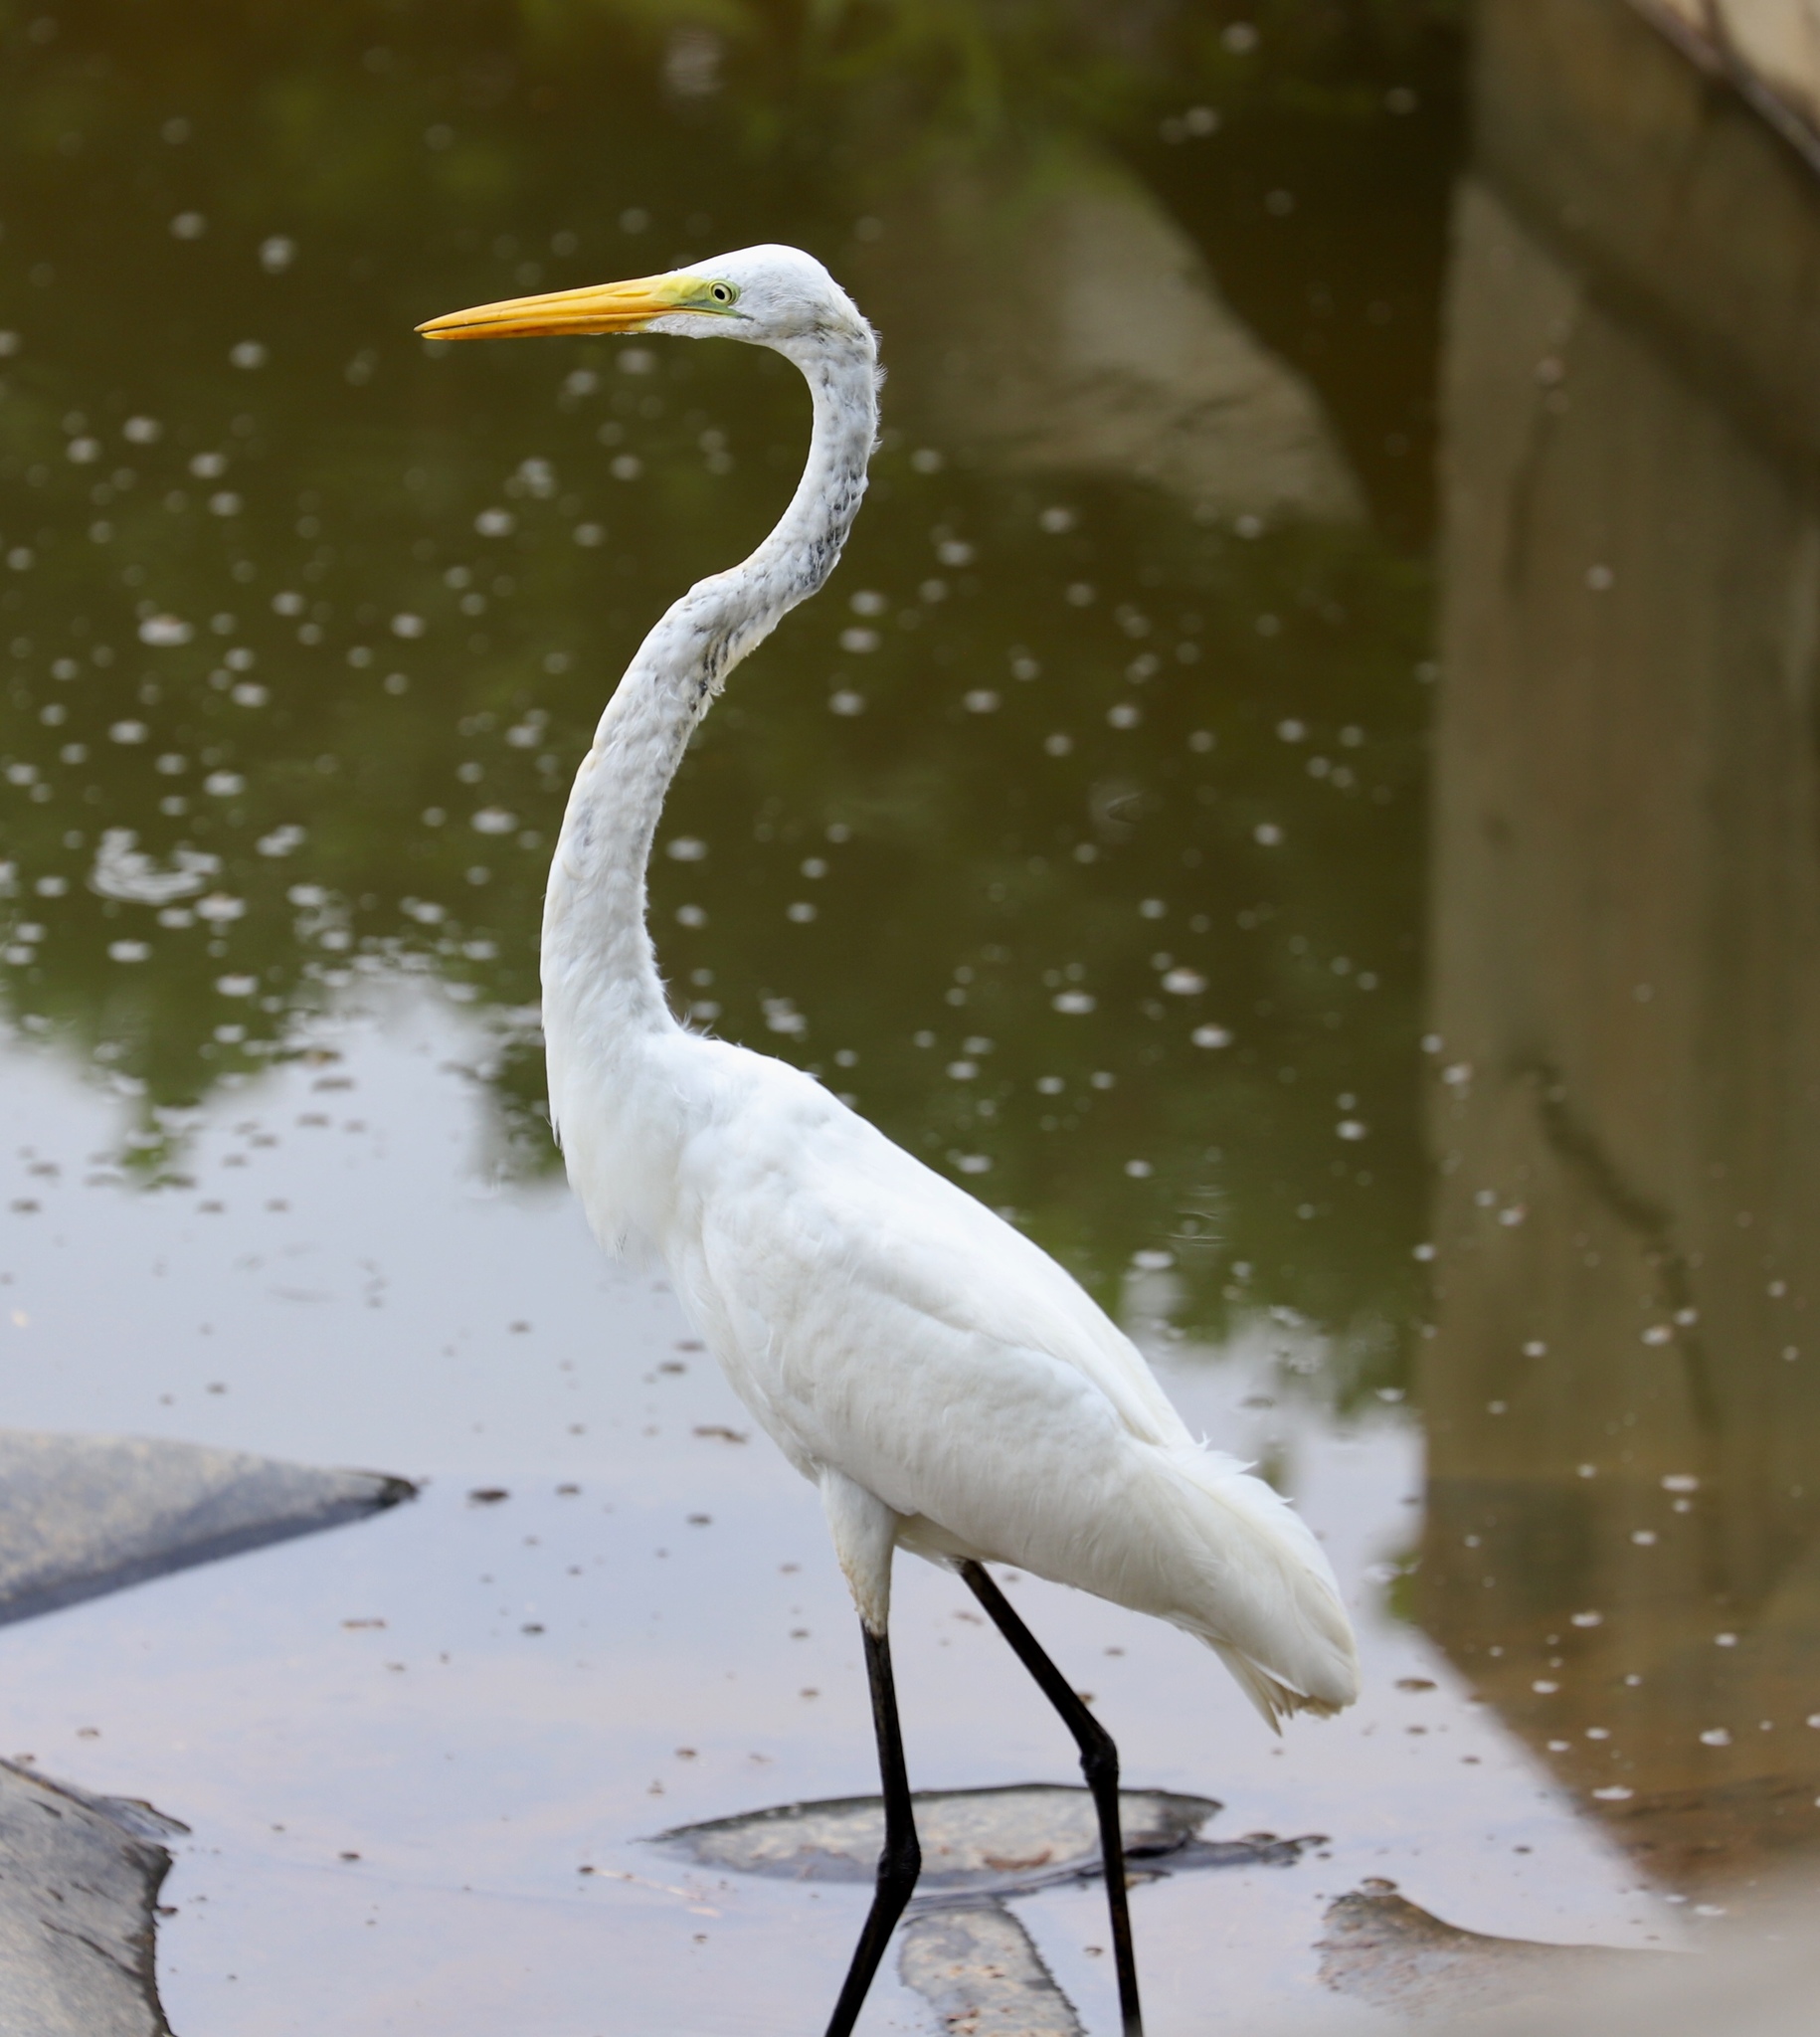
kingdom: Animalia
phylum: Chordata
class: Aves
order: Pelecaniformes
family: Ardeidae
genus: Ardea
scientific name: Ardea alba
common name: Great egret
